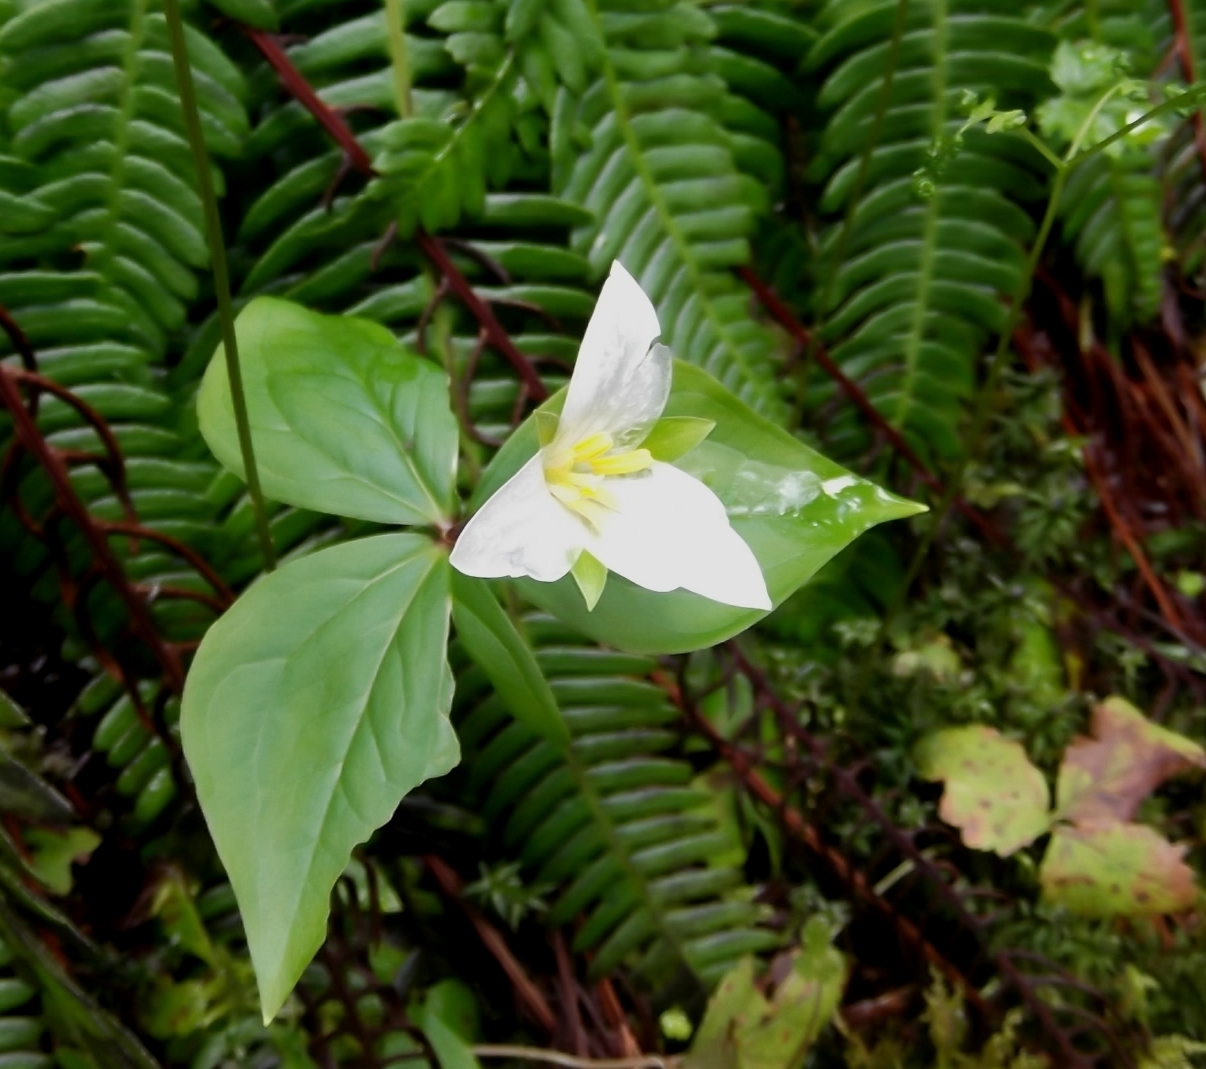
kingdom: Plantae
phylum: Tracheophyta
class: Liliopsida
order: Liliales
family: Melanthiaceae
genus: Trillium
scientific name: Trillium ovatum
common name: Pacific trillium
